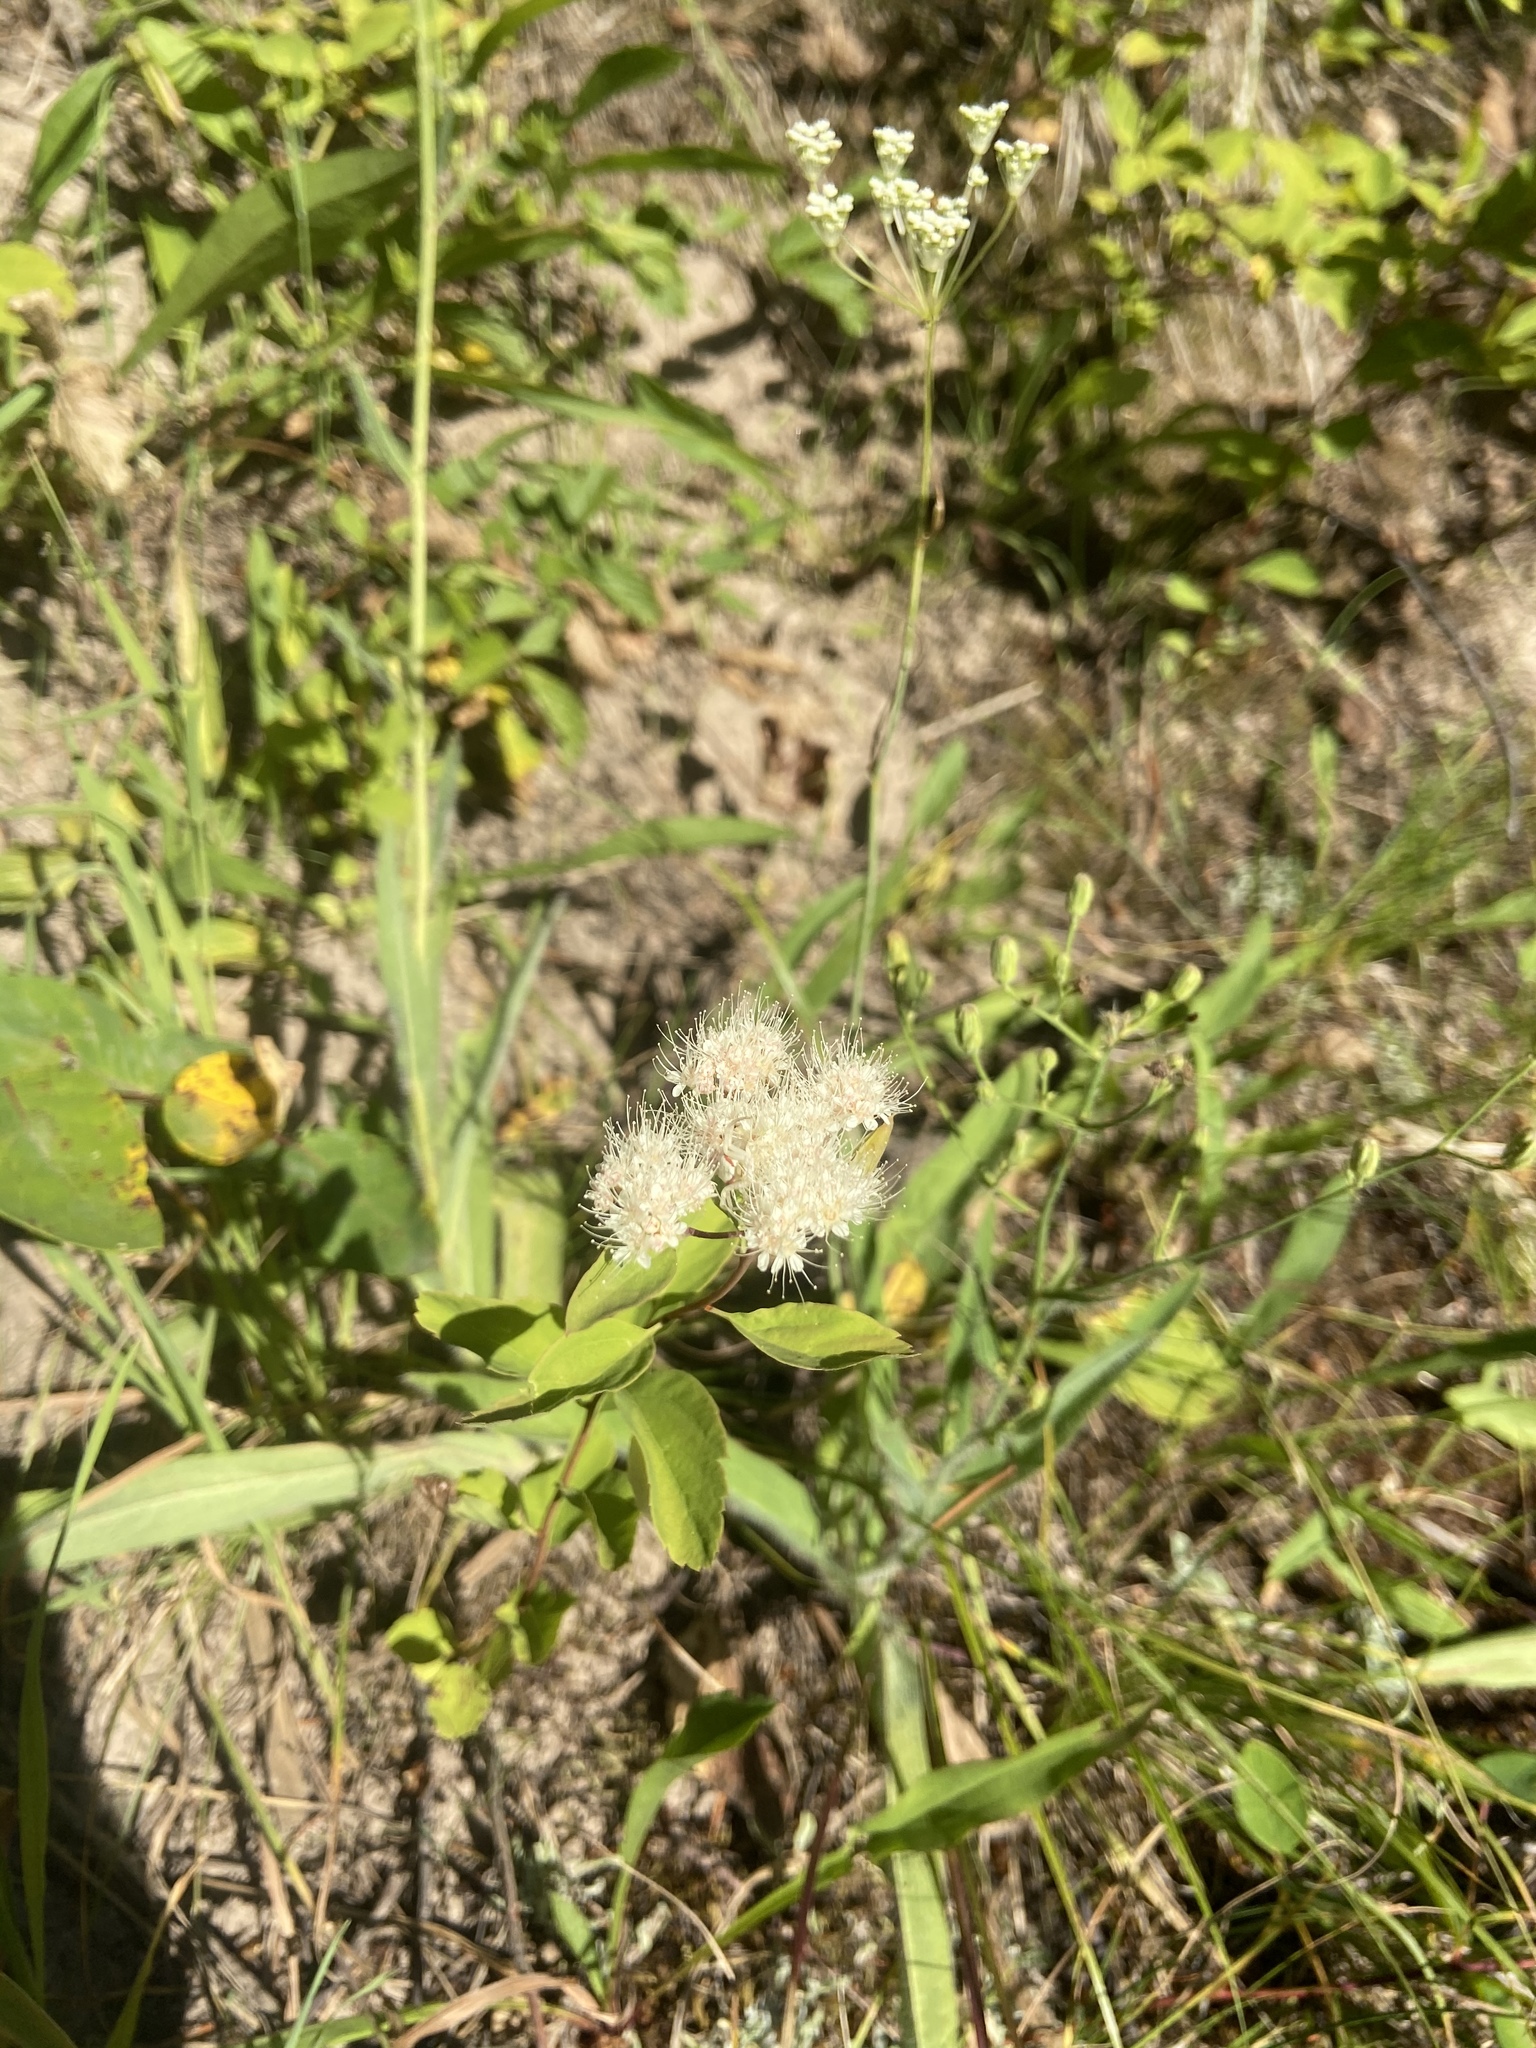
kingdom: Plantae
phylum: Tracheophyta
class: Magnoliopsida
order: Rosales
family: Rosaceae
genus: Spiraea
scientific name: Spiraea lucida
